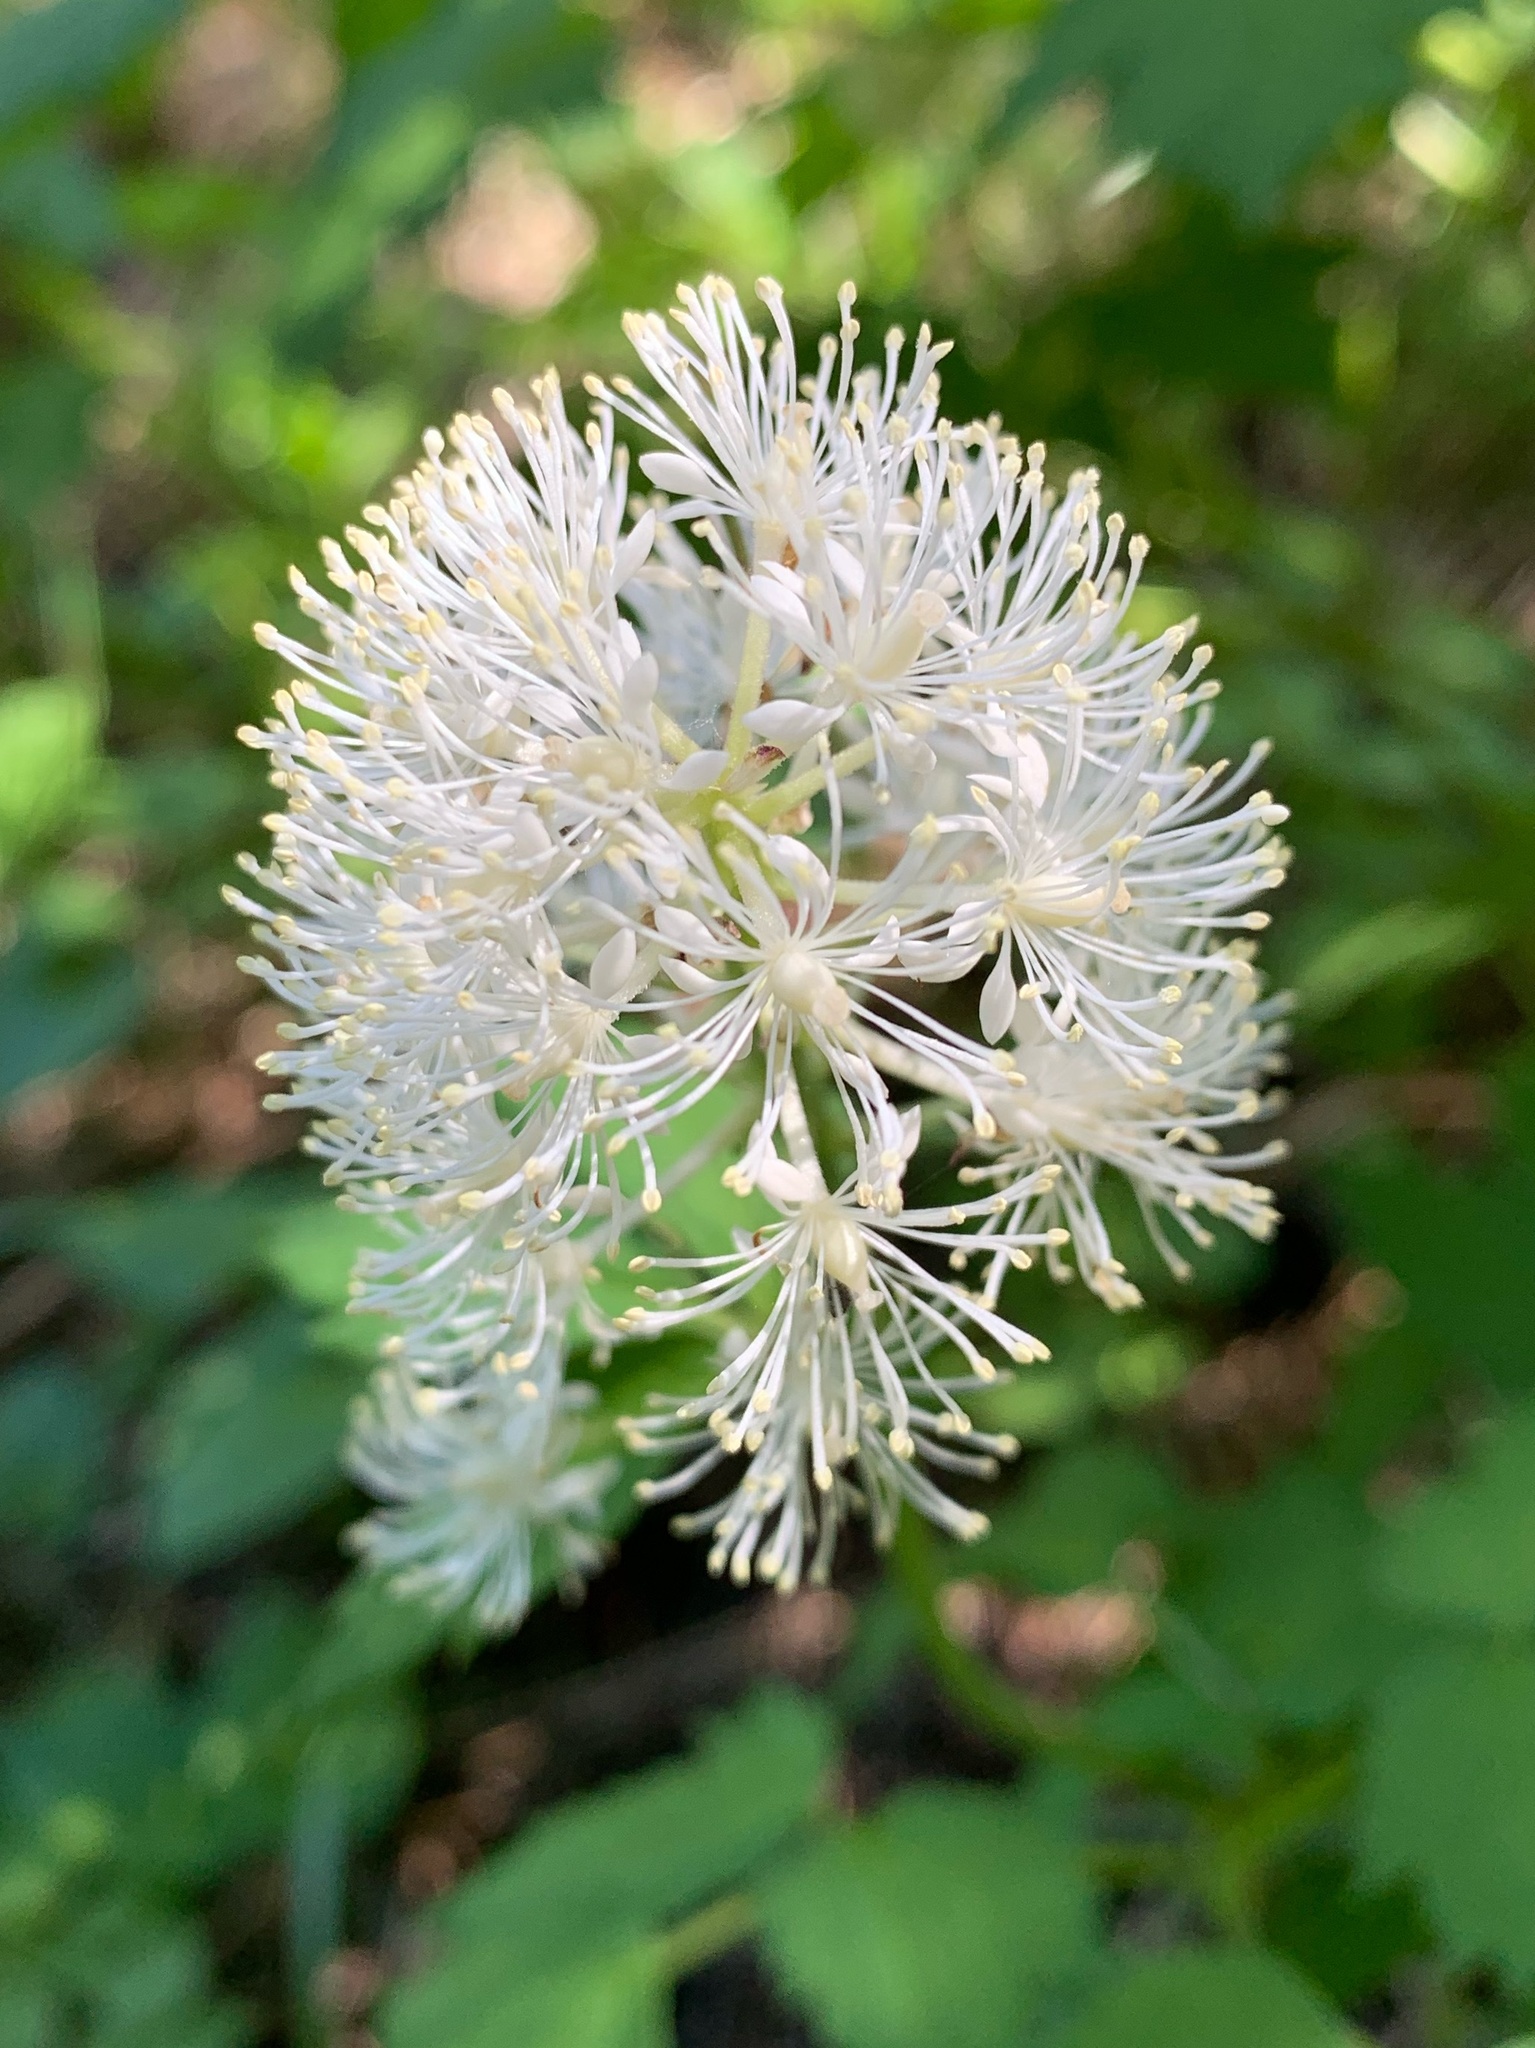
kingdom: Plantae
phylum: Tracheophyta
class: Magnoliopsida
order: Ranunculales
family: Ranunculaceae
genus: Actaea
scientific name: Actaea rubra
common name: Red baneberry
